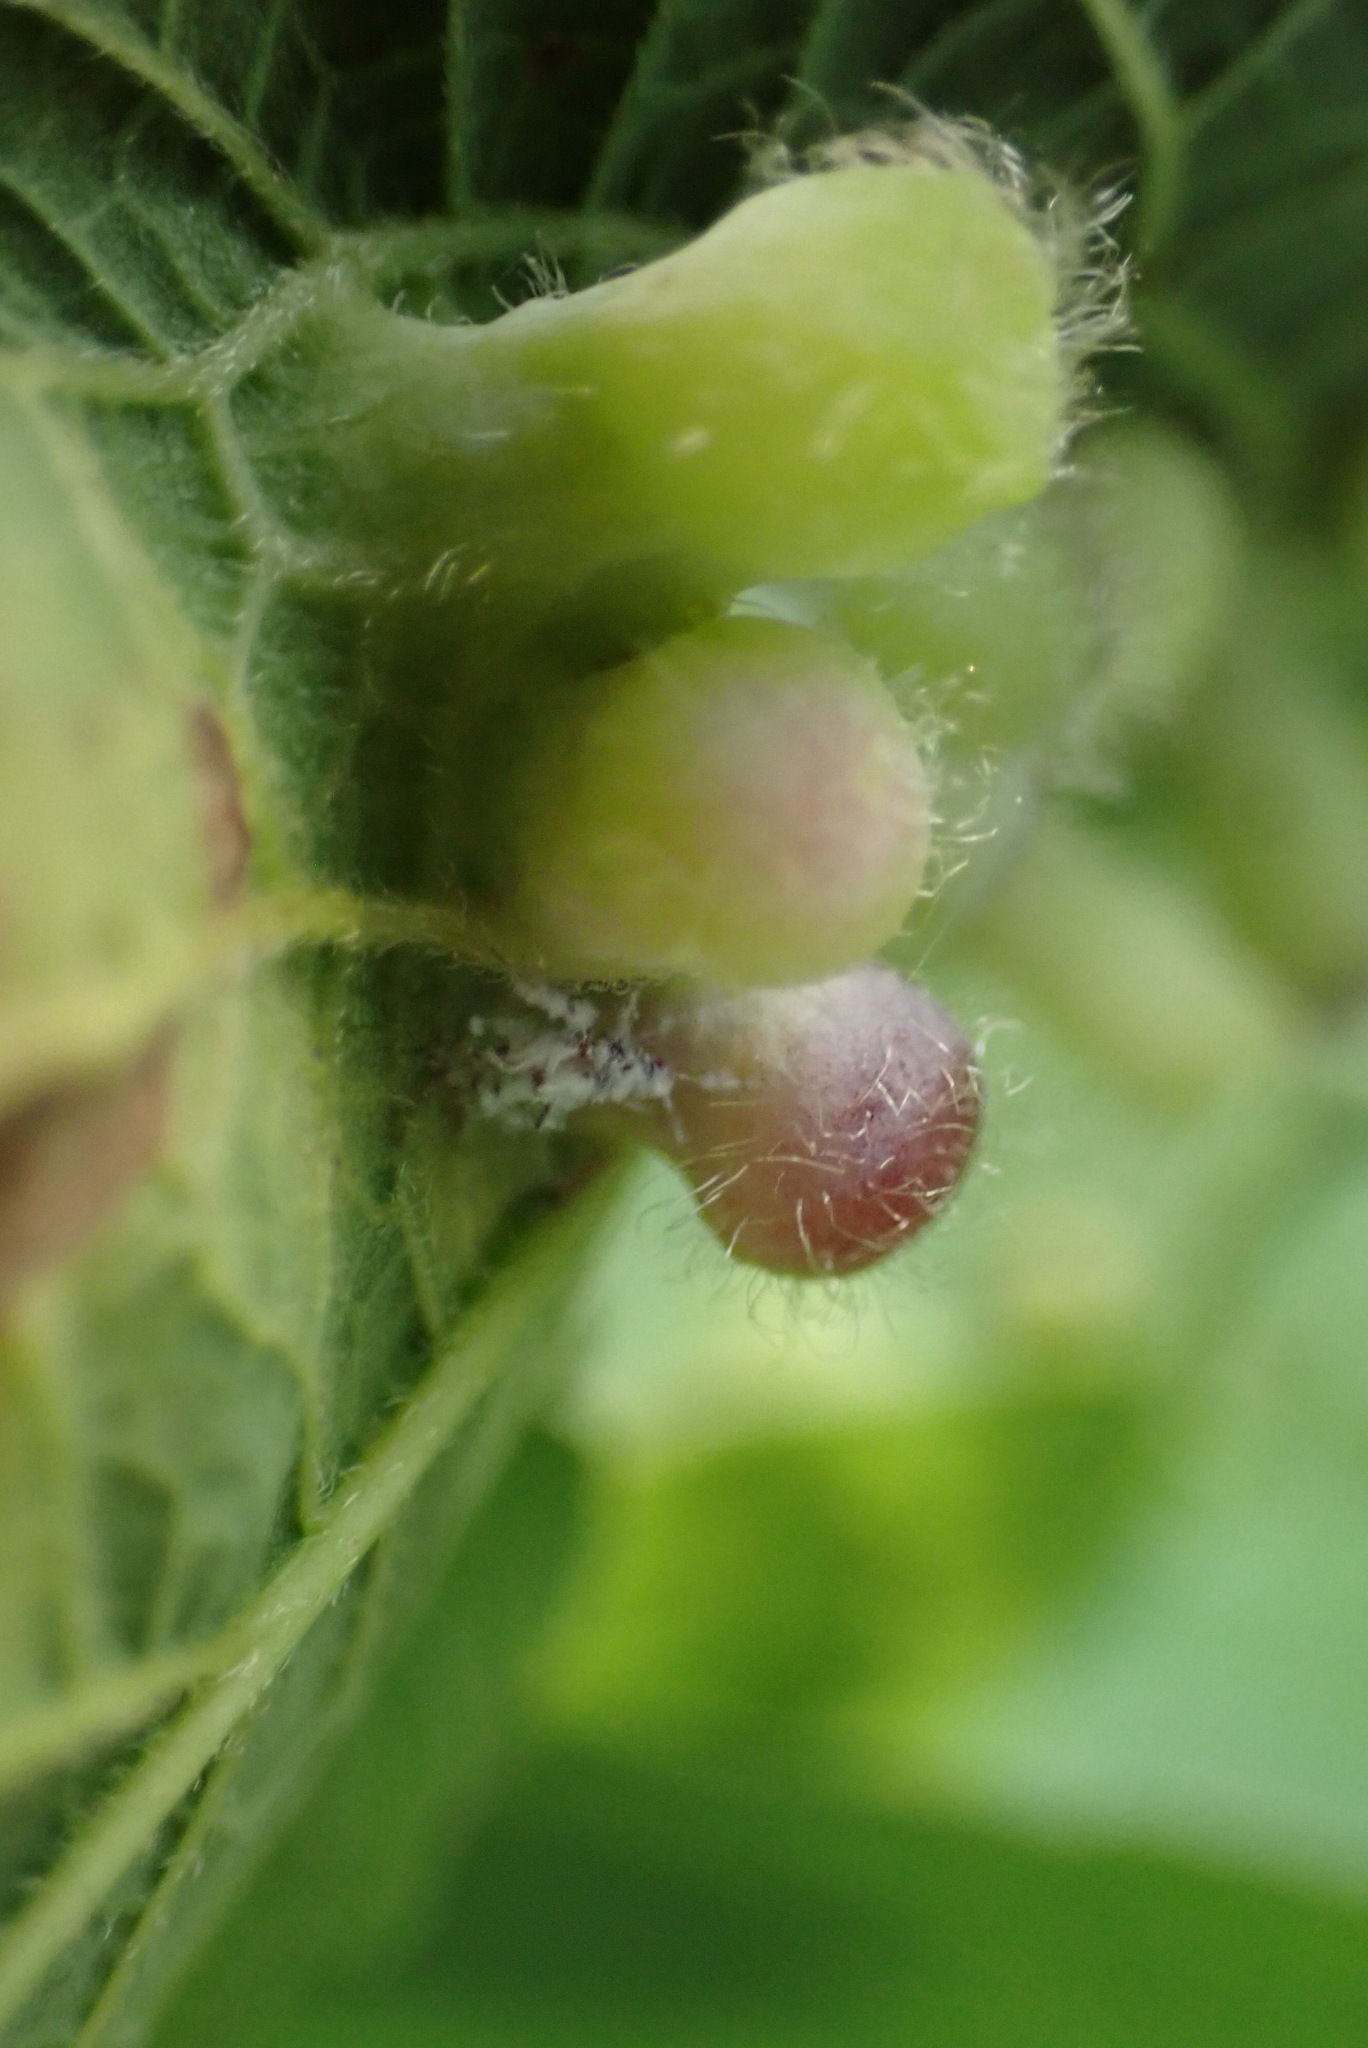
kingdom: Animalia
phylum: Arthropoda
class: Insecta
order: Hemiptera
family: Aphalaridae
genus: Pachypsylla
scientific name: Pachypsylla celtidismamma
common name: Hackberry nipplegall psyllid
